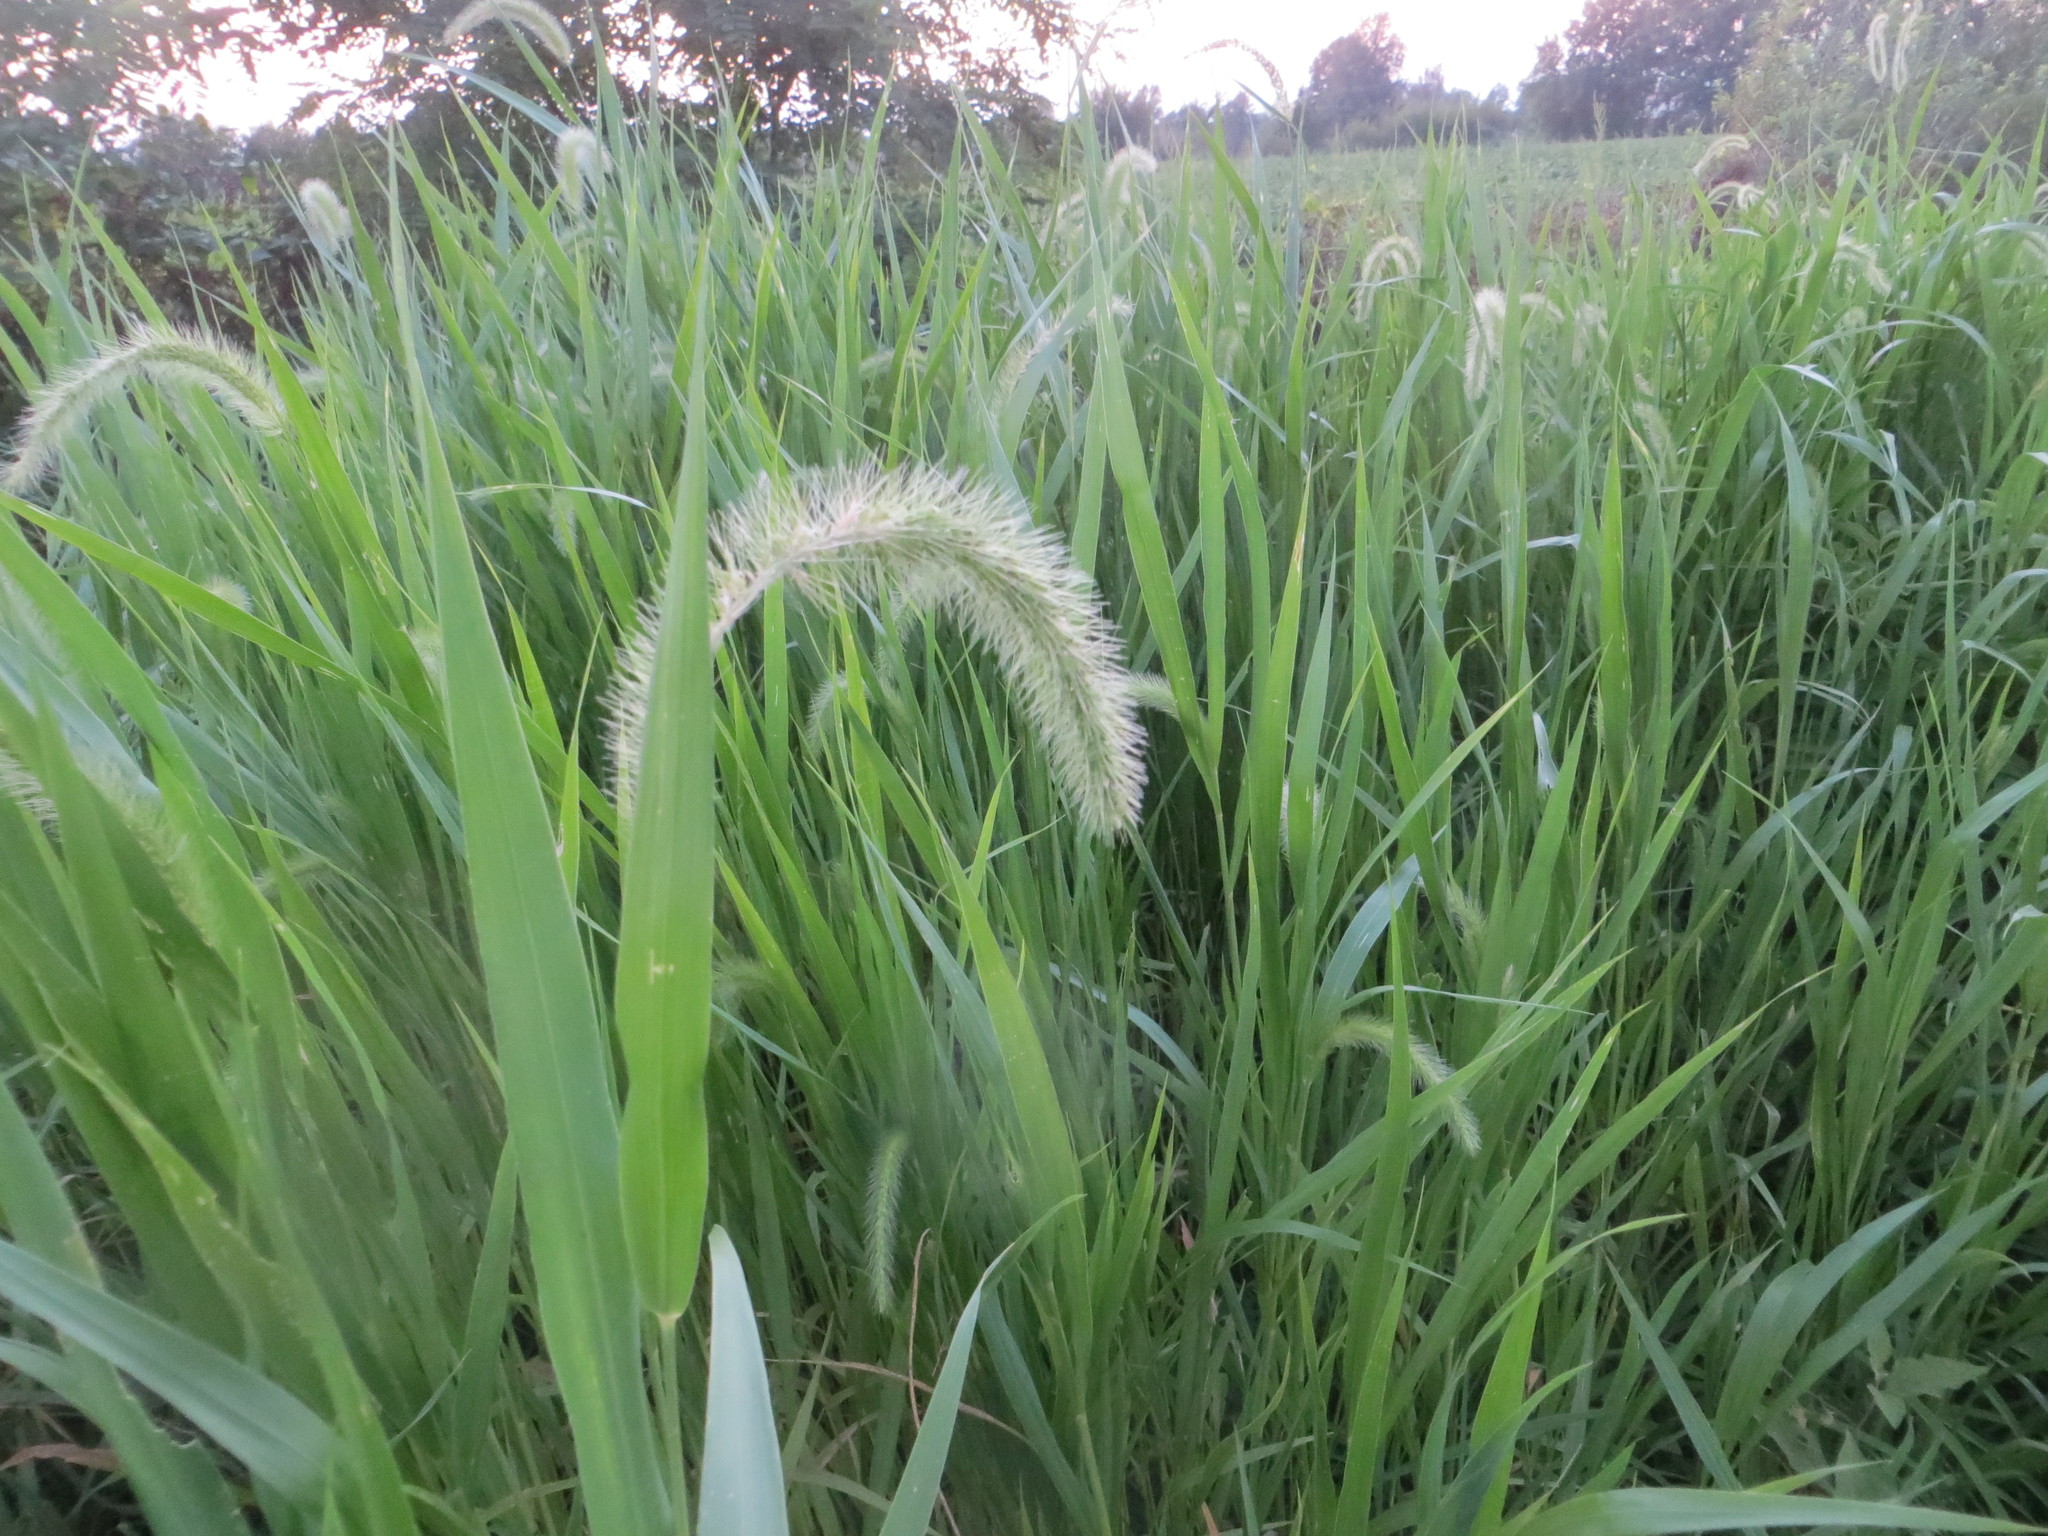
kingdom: Plantae
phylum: Tracheophyta
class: Liliopsida
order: Poales
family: Poaceae
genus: Setaria
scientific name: Setaria faberi
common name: Nodding bristle-grass
